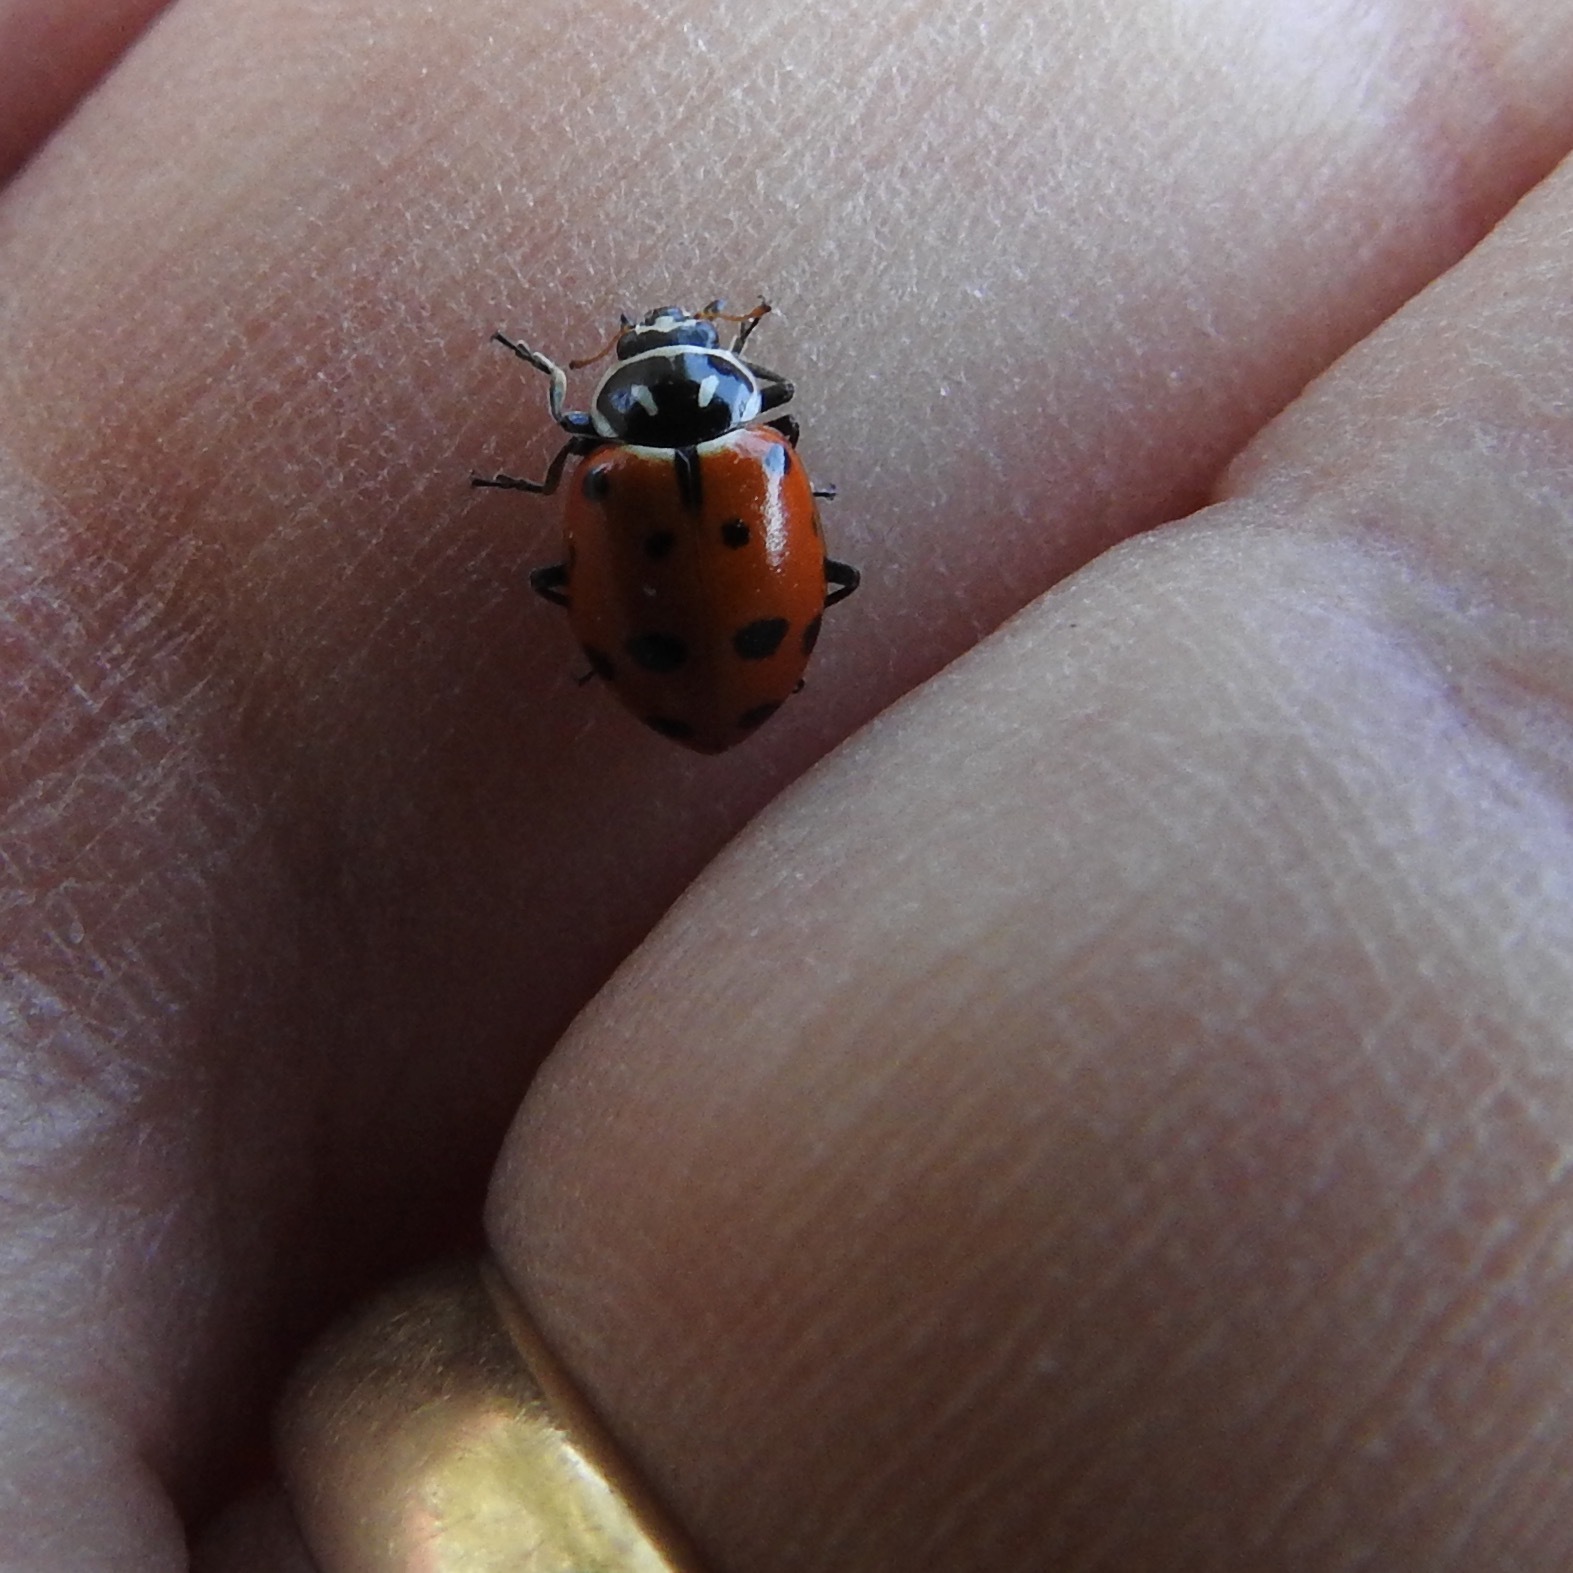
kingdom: Animalia
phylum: Arthropoda
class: Insecta
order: Coleoptera
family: Coccinellidae
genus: Hippodamia
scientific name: Hippodamia convergens
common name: Convergent lady beetle
